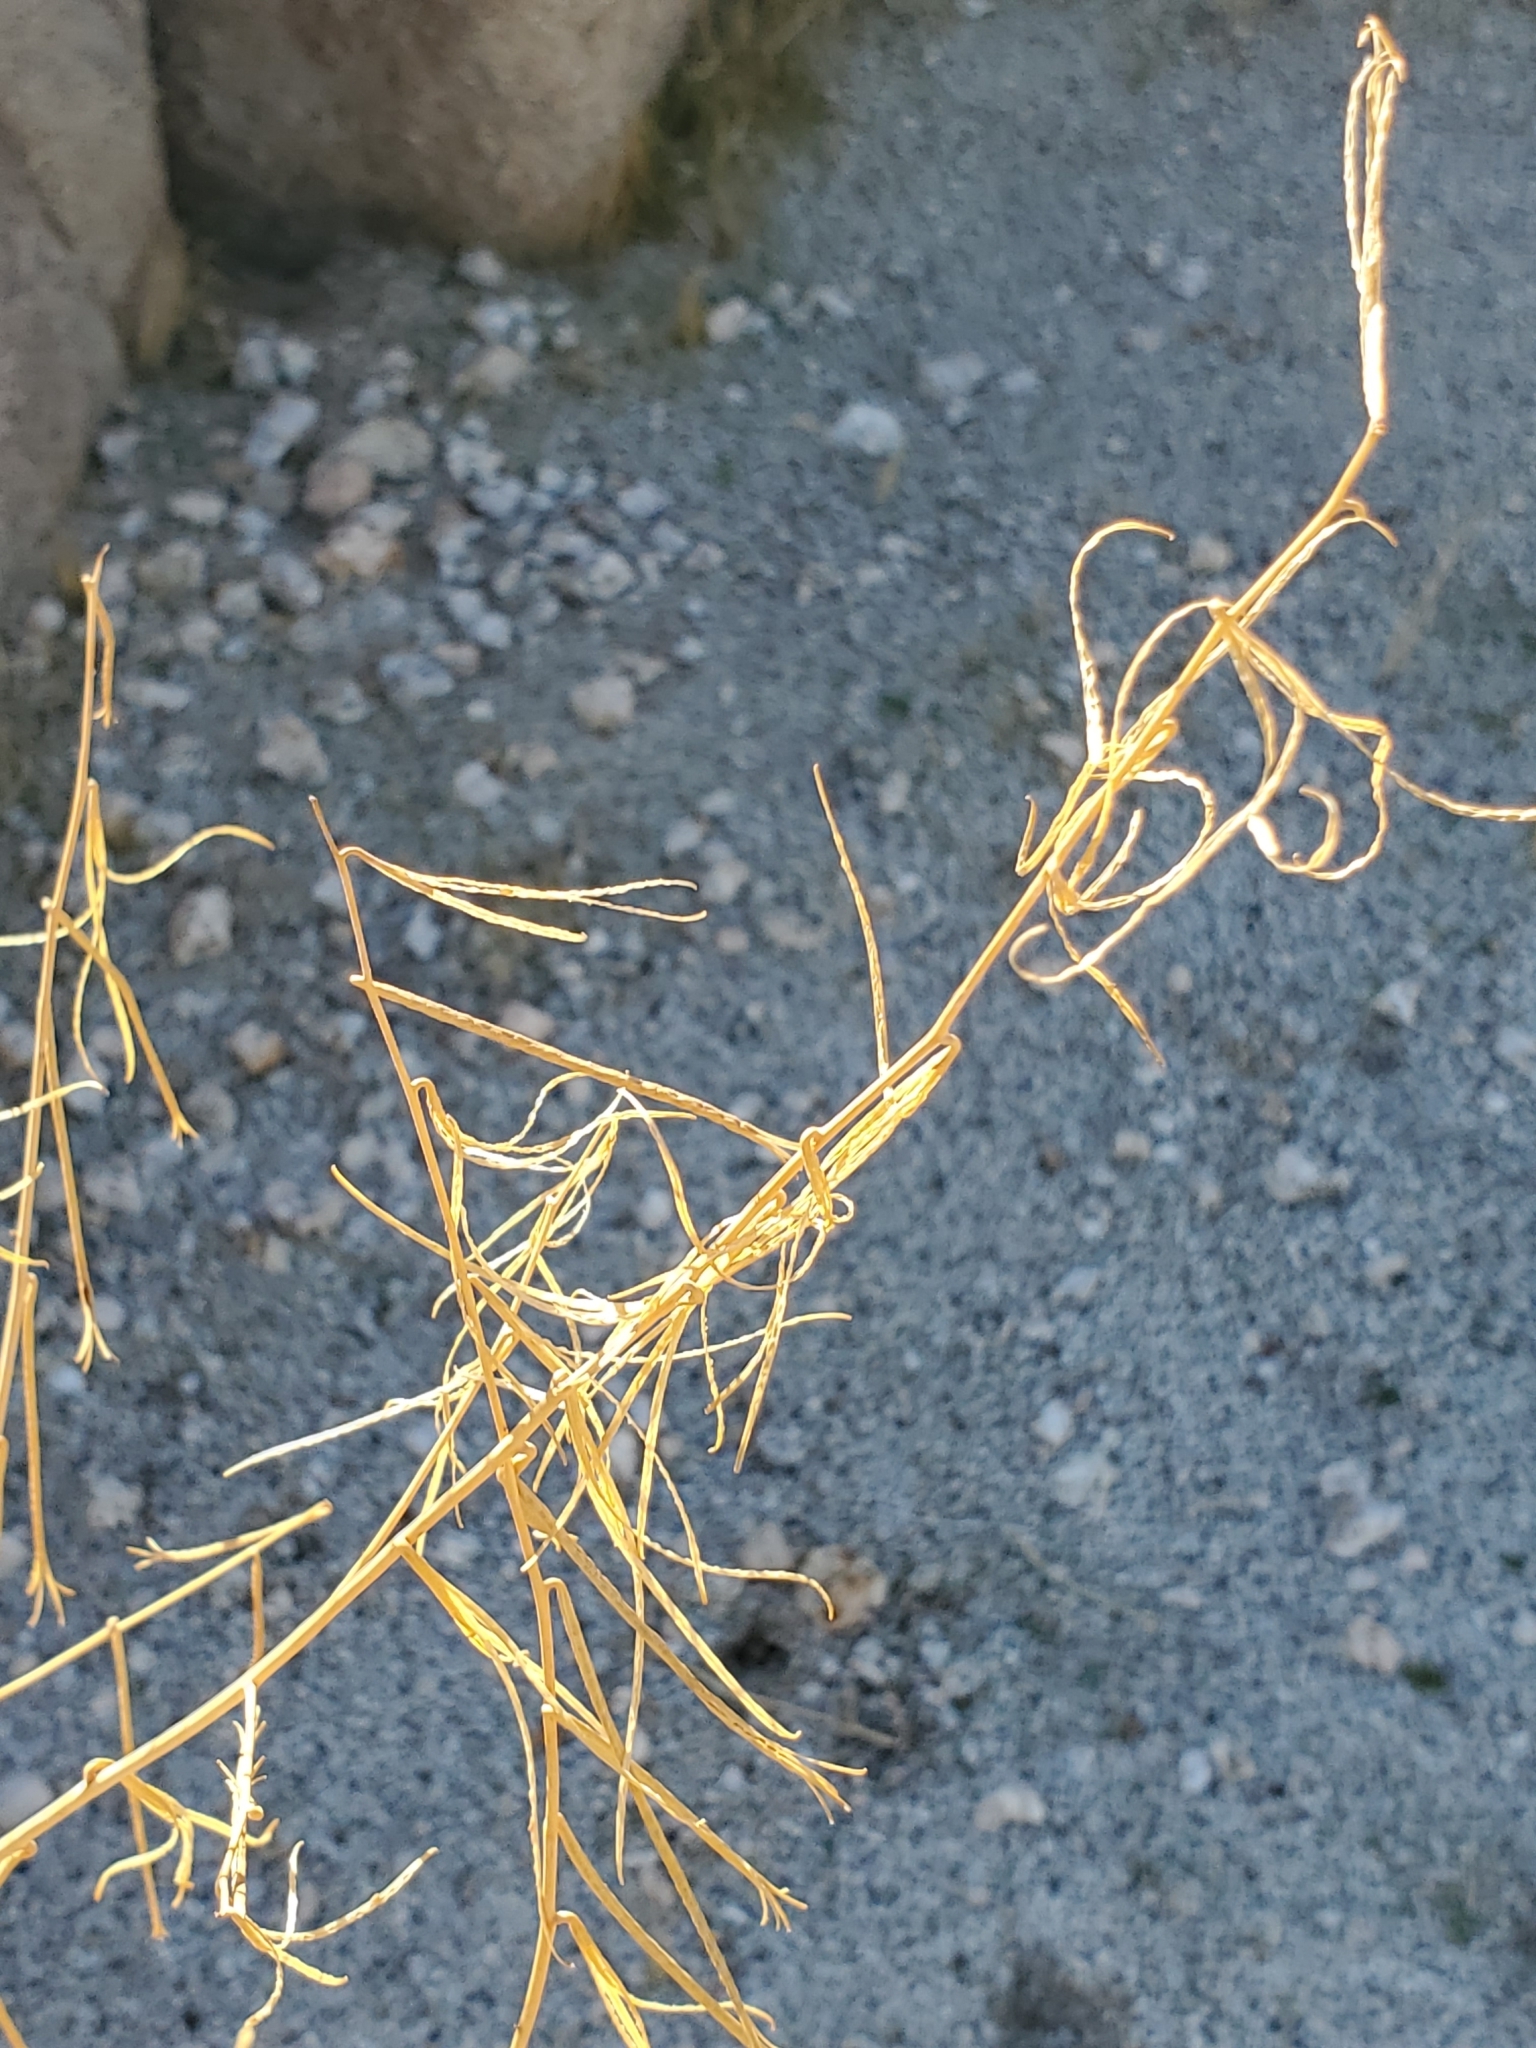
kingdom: Plantae
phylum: Tracheophyta
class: Magnoliopsida
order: Myrtales
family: Onagraceae
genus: Eulobus
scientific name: Eulobus californicus
